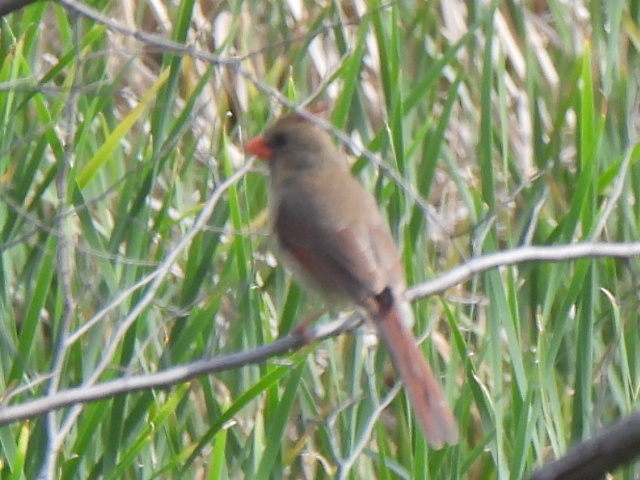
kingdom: Animalia
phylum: Chordata
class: Aves
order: Passeriformes
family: Cardinalidae
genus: Cardinalis
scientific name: Cardinalis cardinalis
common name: Northern cardinal
